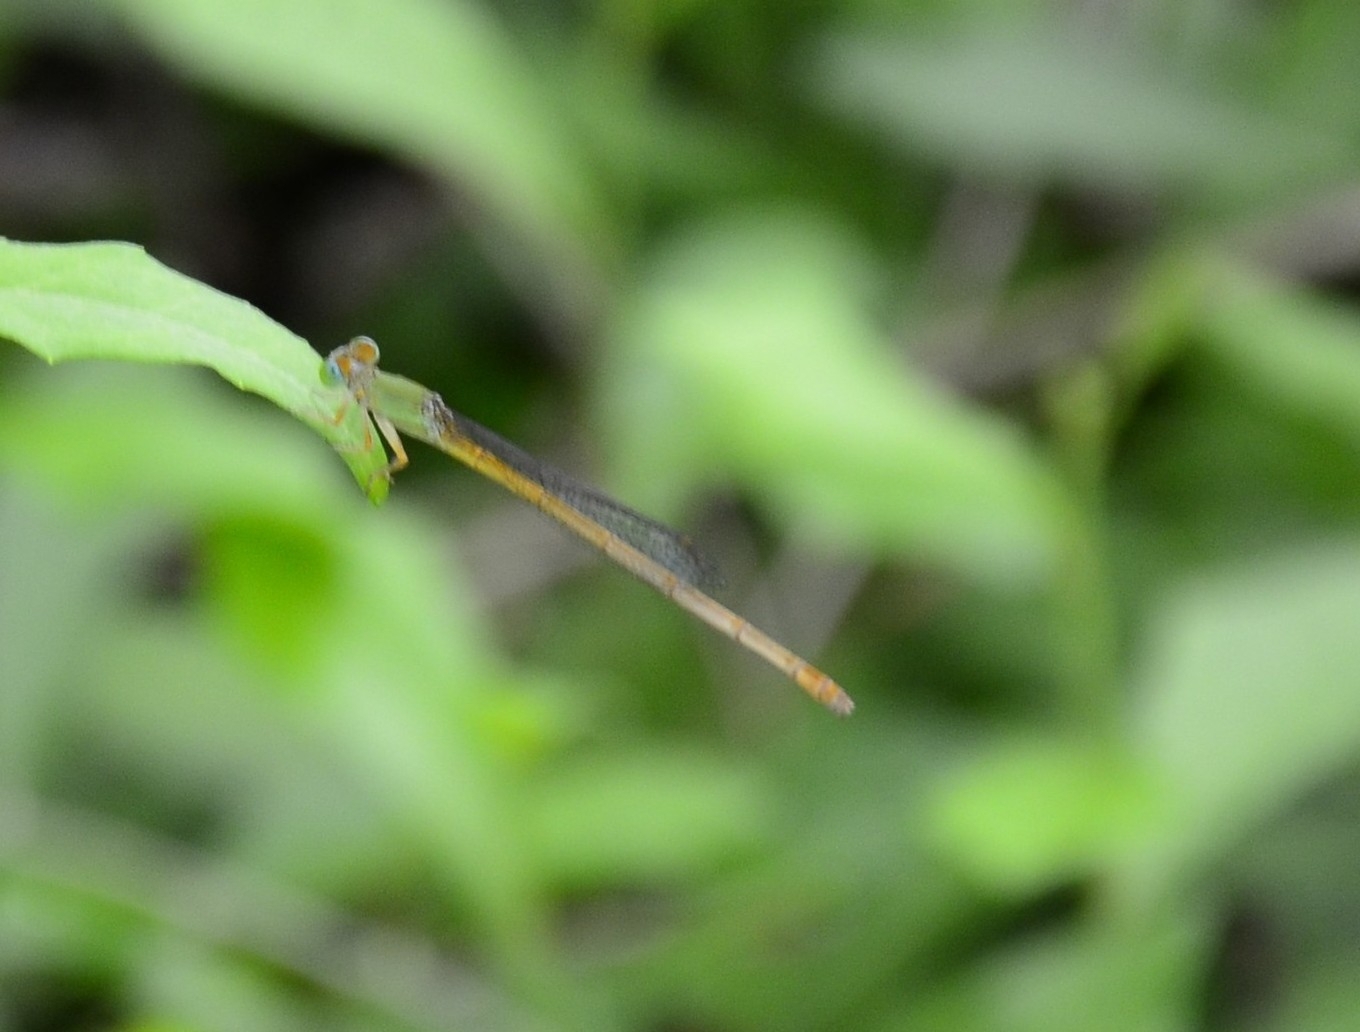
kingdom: Animalia
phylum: Arthropoda
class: Insecta
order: Odonata
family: Coenagrionidae
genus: Ceriagrion
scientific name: Ceriagrion coromandelianum
